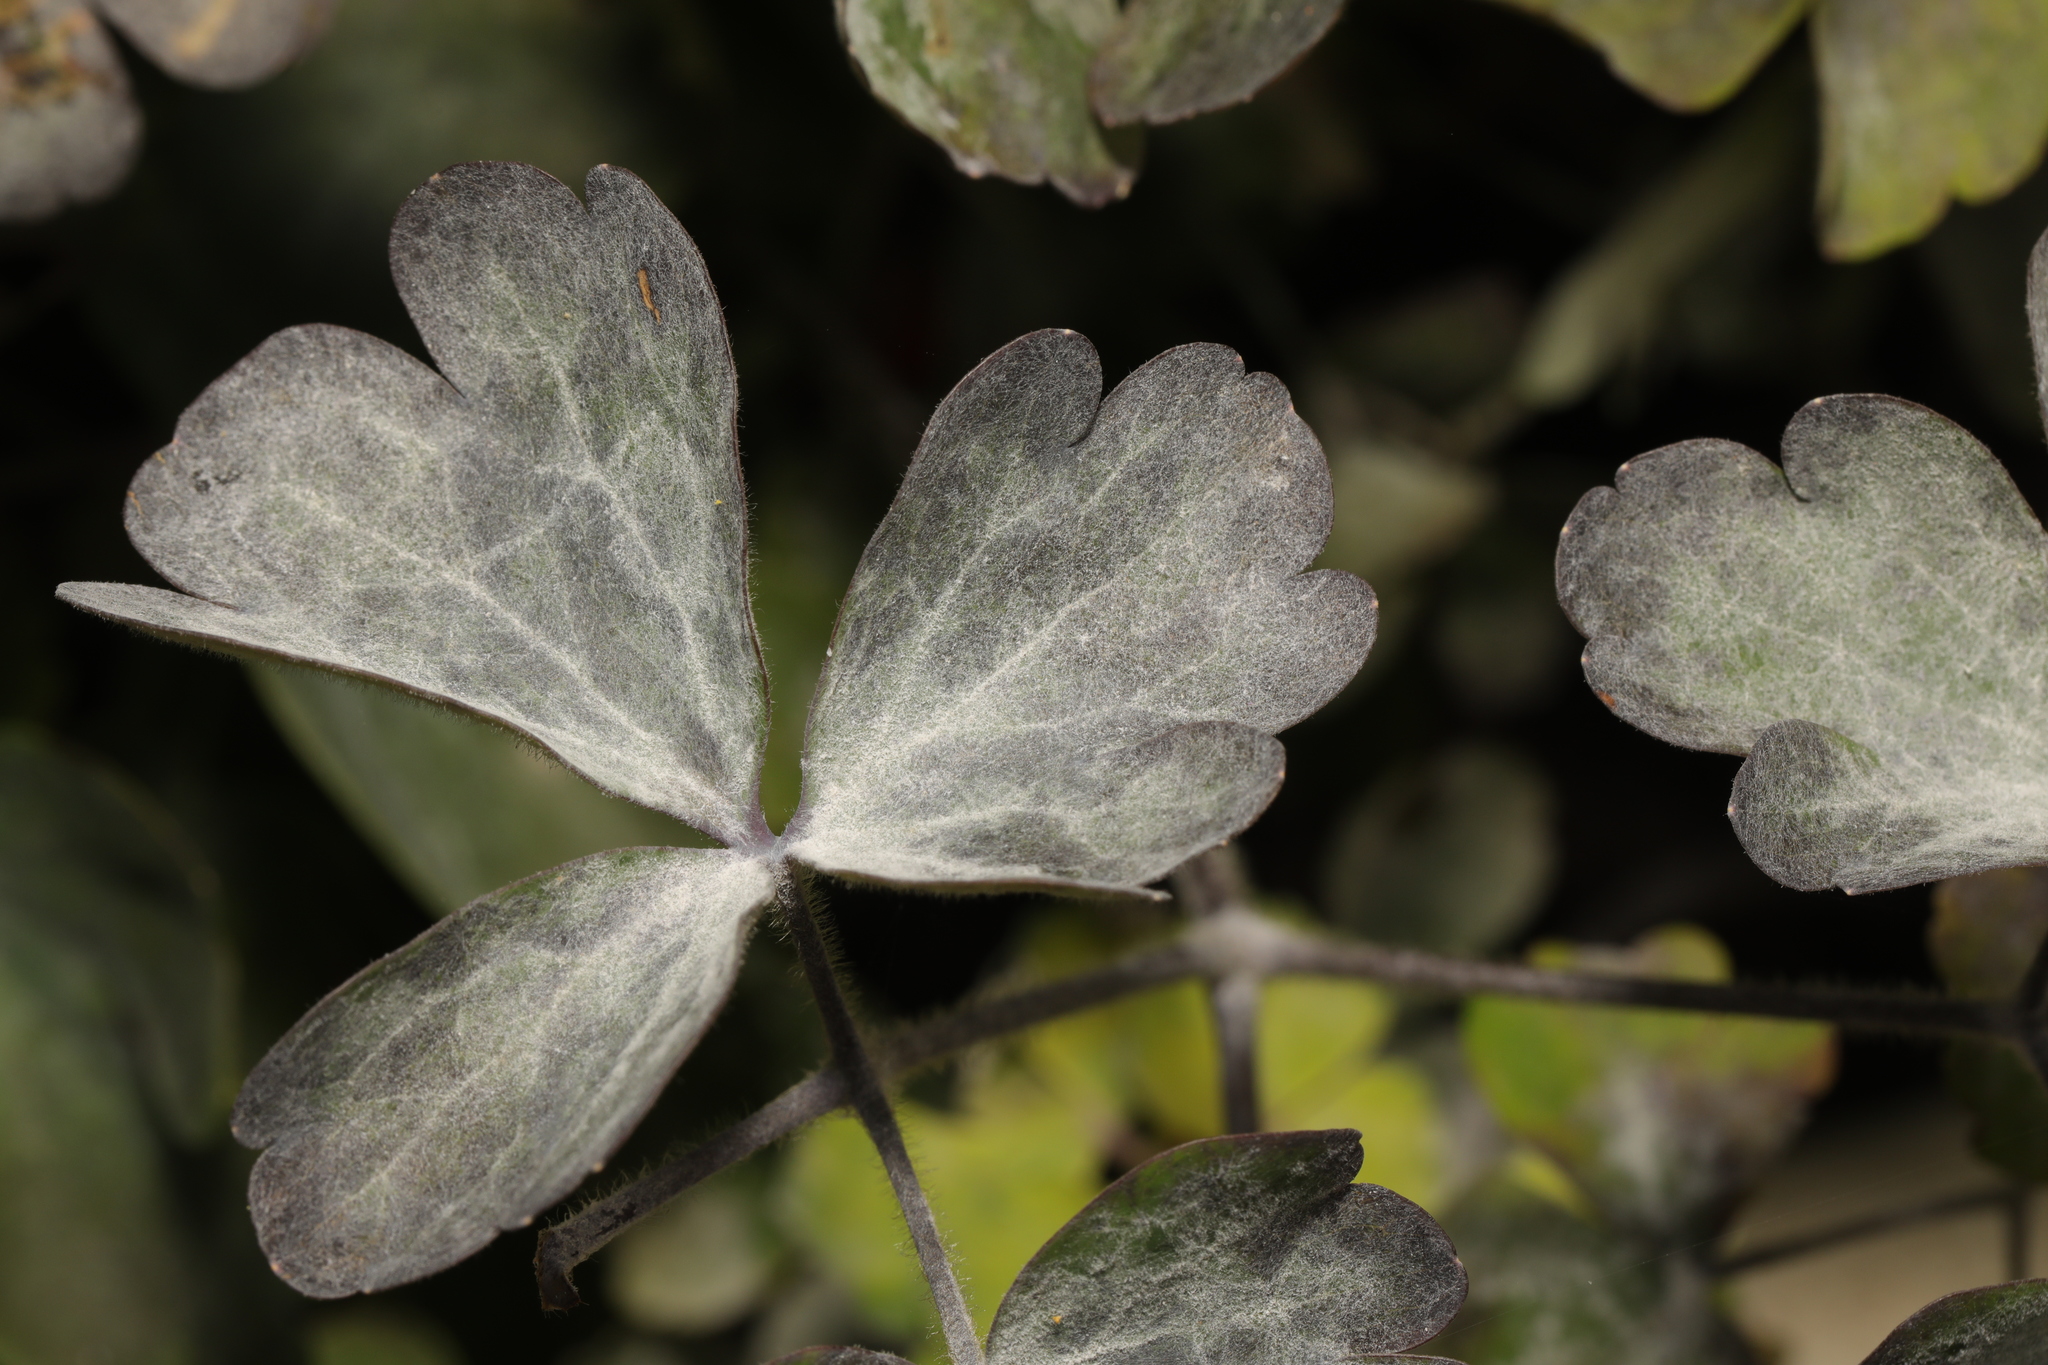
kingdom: Fungi
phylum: Ascomycota
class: Leotiomycetes
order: Helotiales
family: Erysiphaceae
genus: Erysiphe
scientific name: Erysiphe aquilegiae
